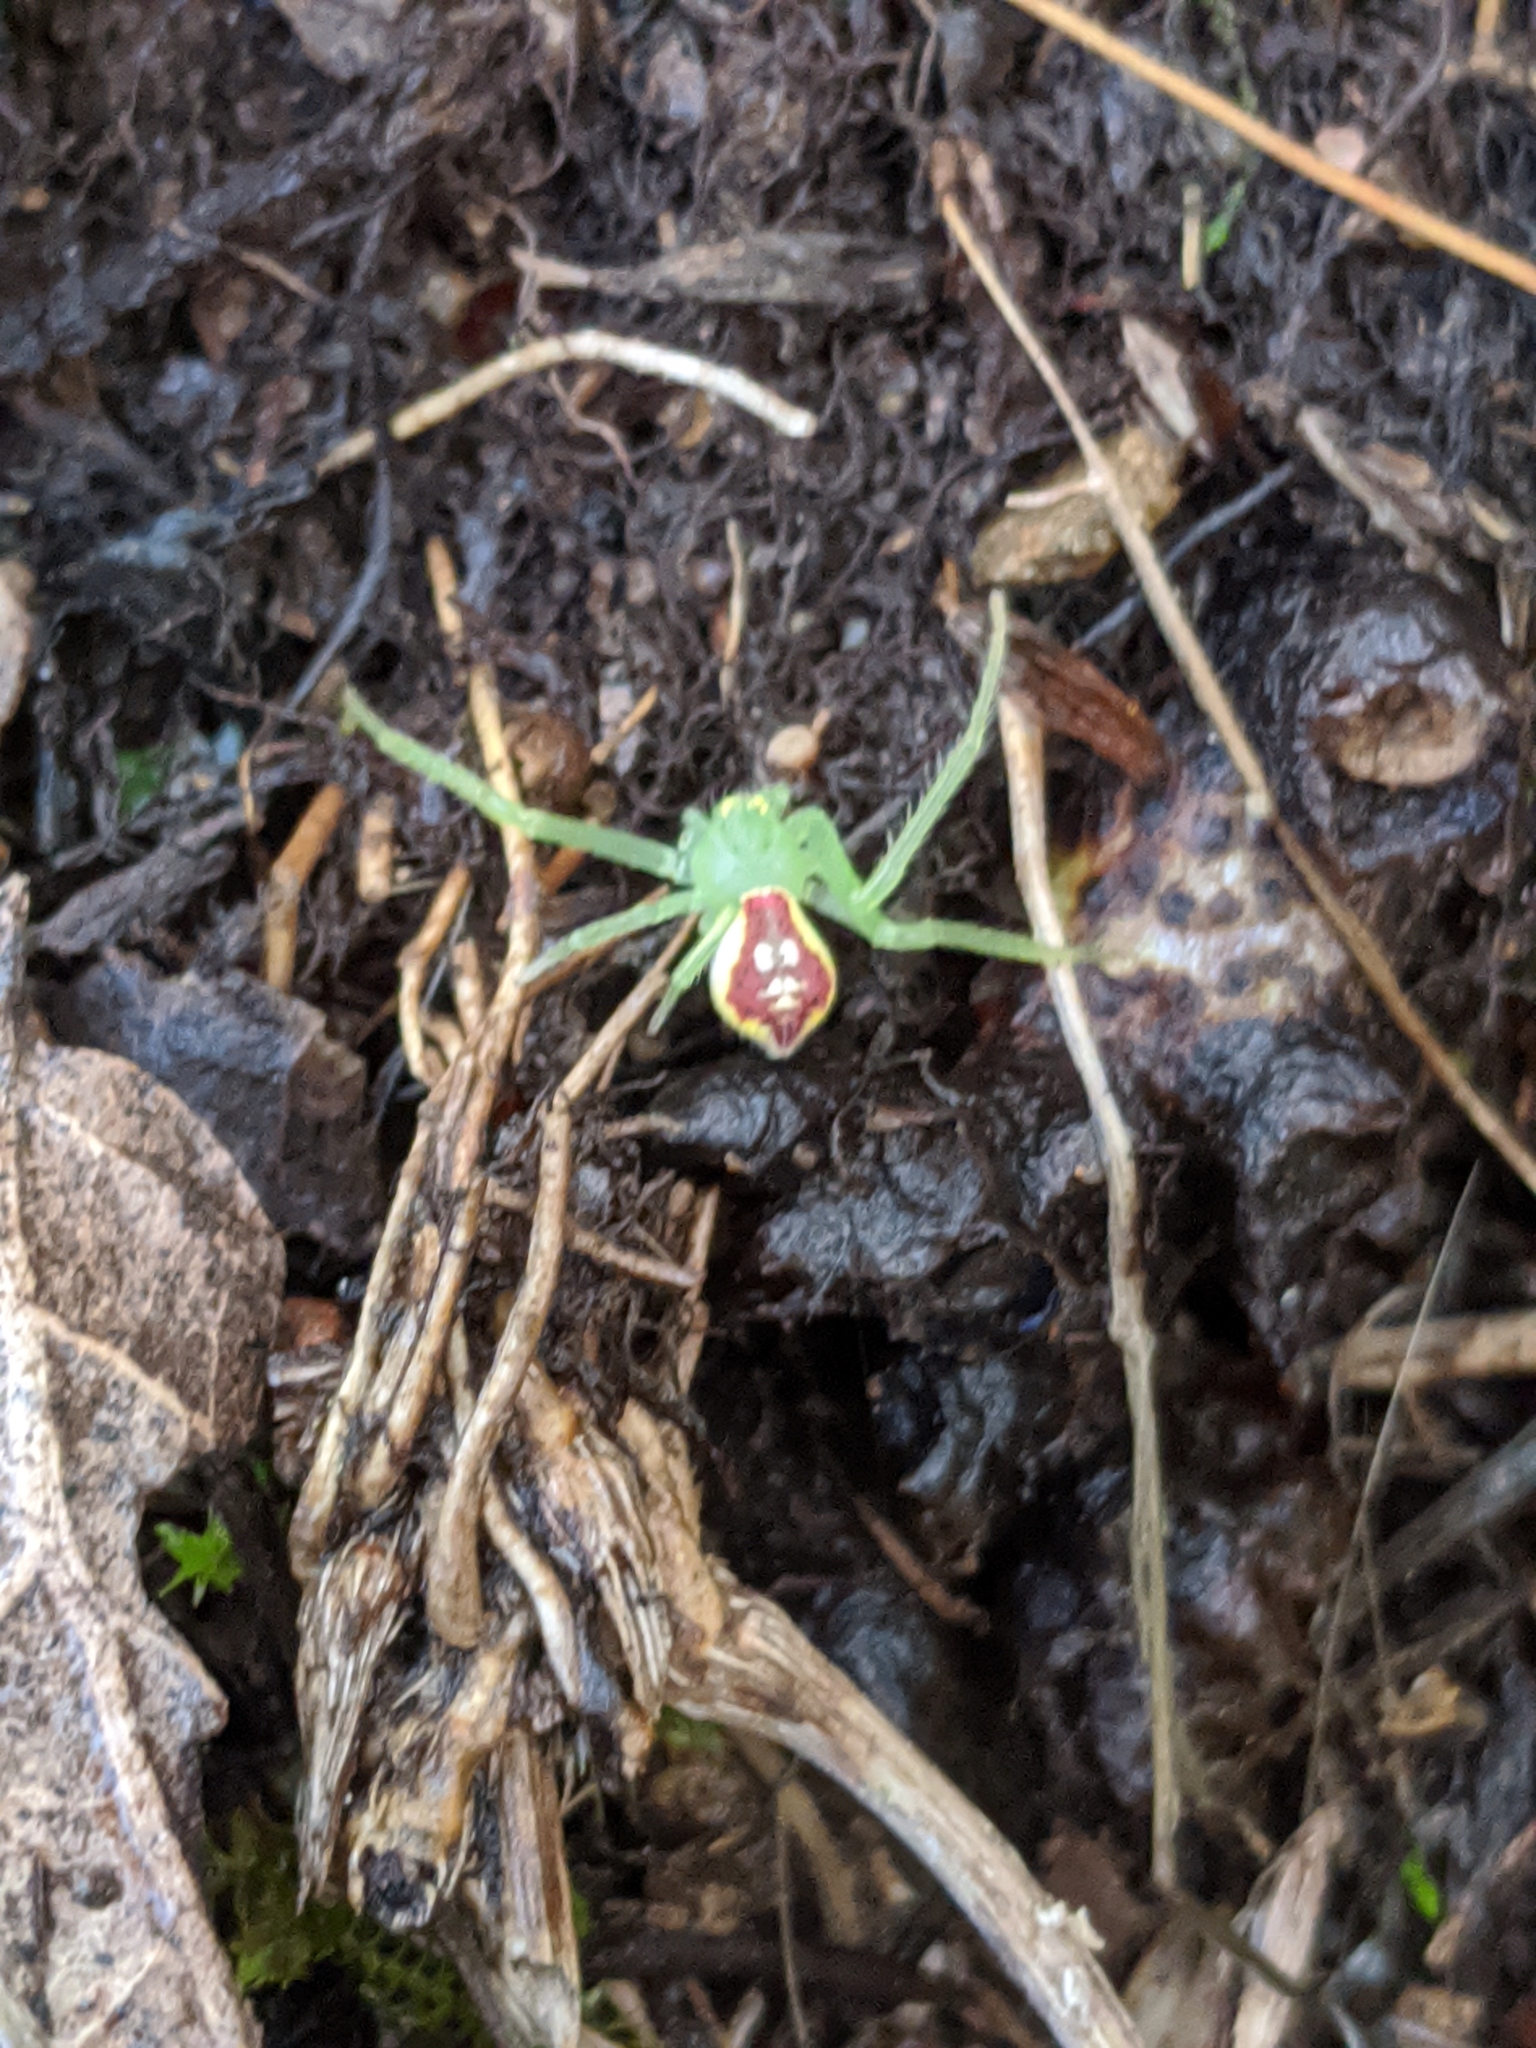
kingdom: Animalia
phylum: Arthropoda
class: Arachnida
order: Araneae
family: Thomisidae
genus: Diaea
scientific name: Diaea livens
